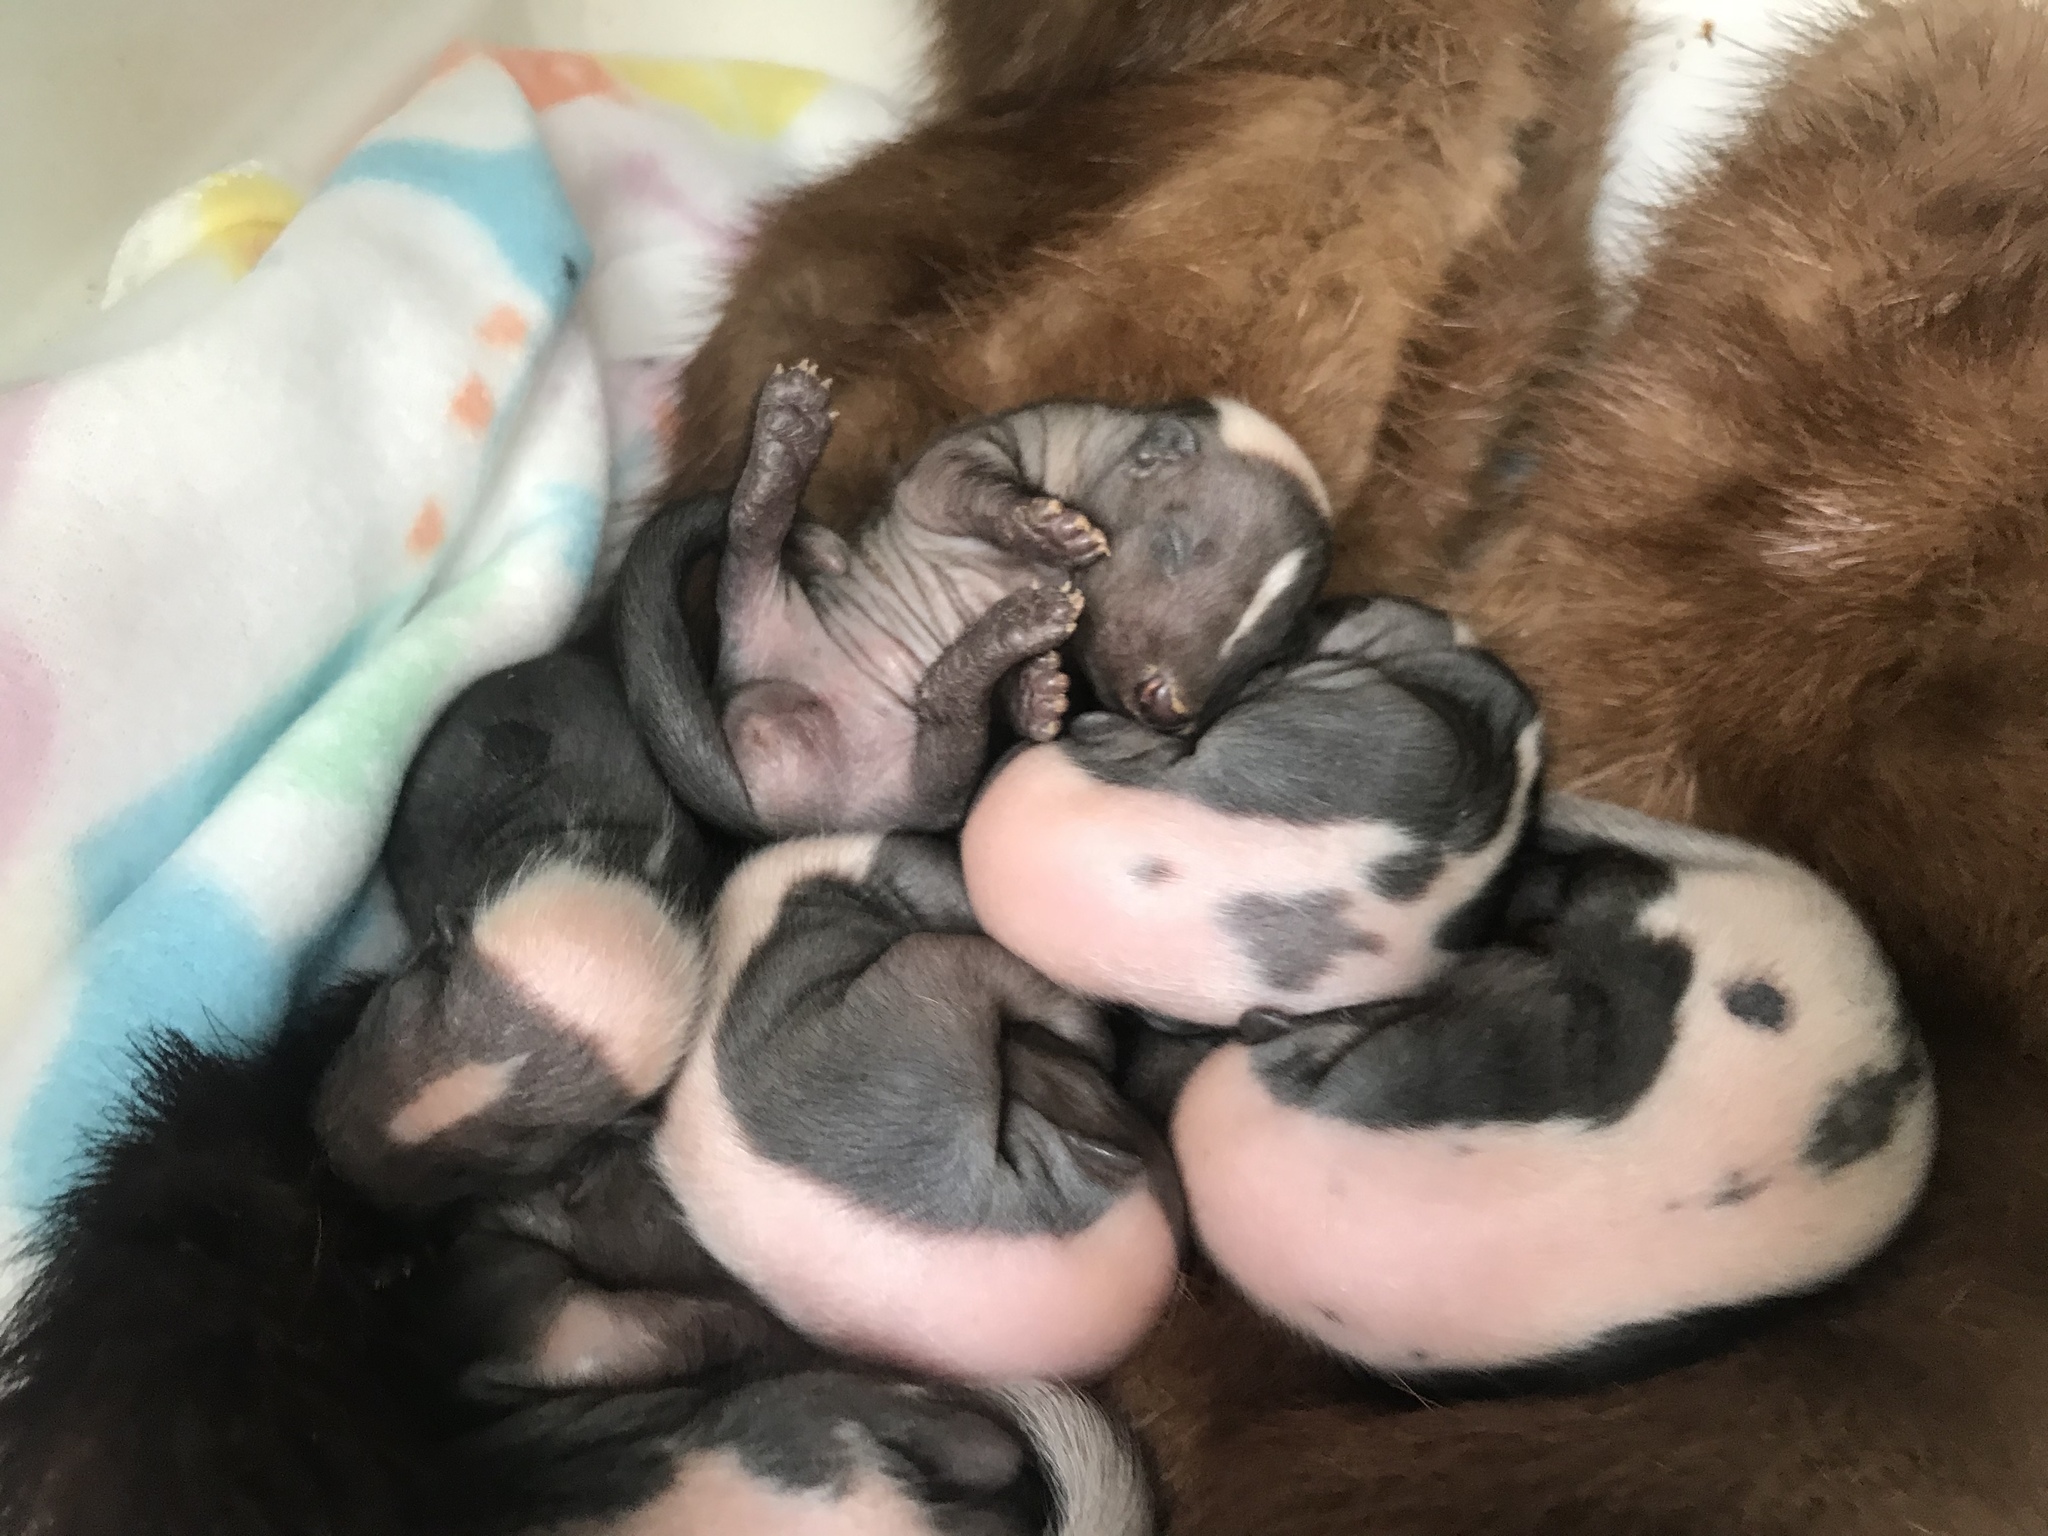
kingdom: Animalia
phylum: Chordata
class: Mammalia
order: Carnivora
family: Mephitidae
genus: Mephitis
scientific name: Mephitis mephitis
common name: Striped skunk
